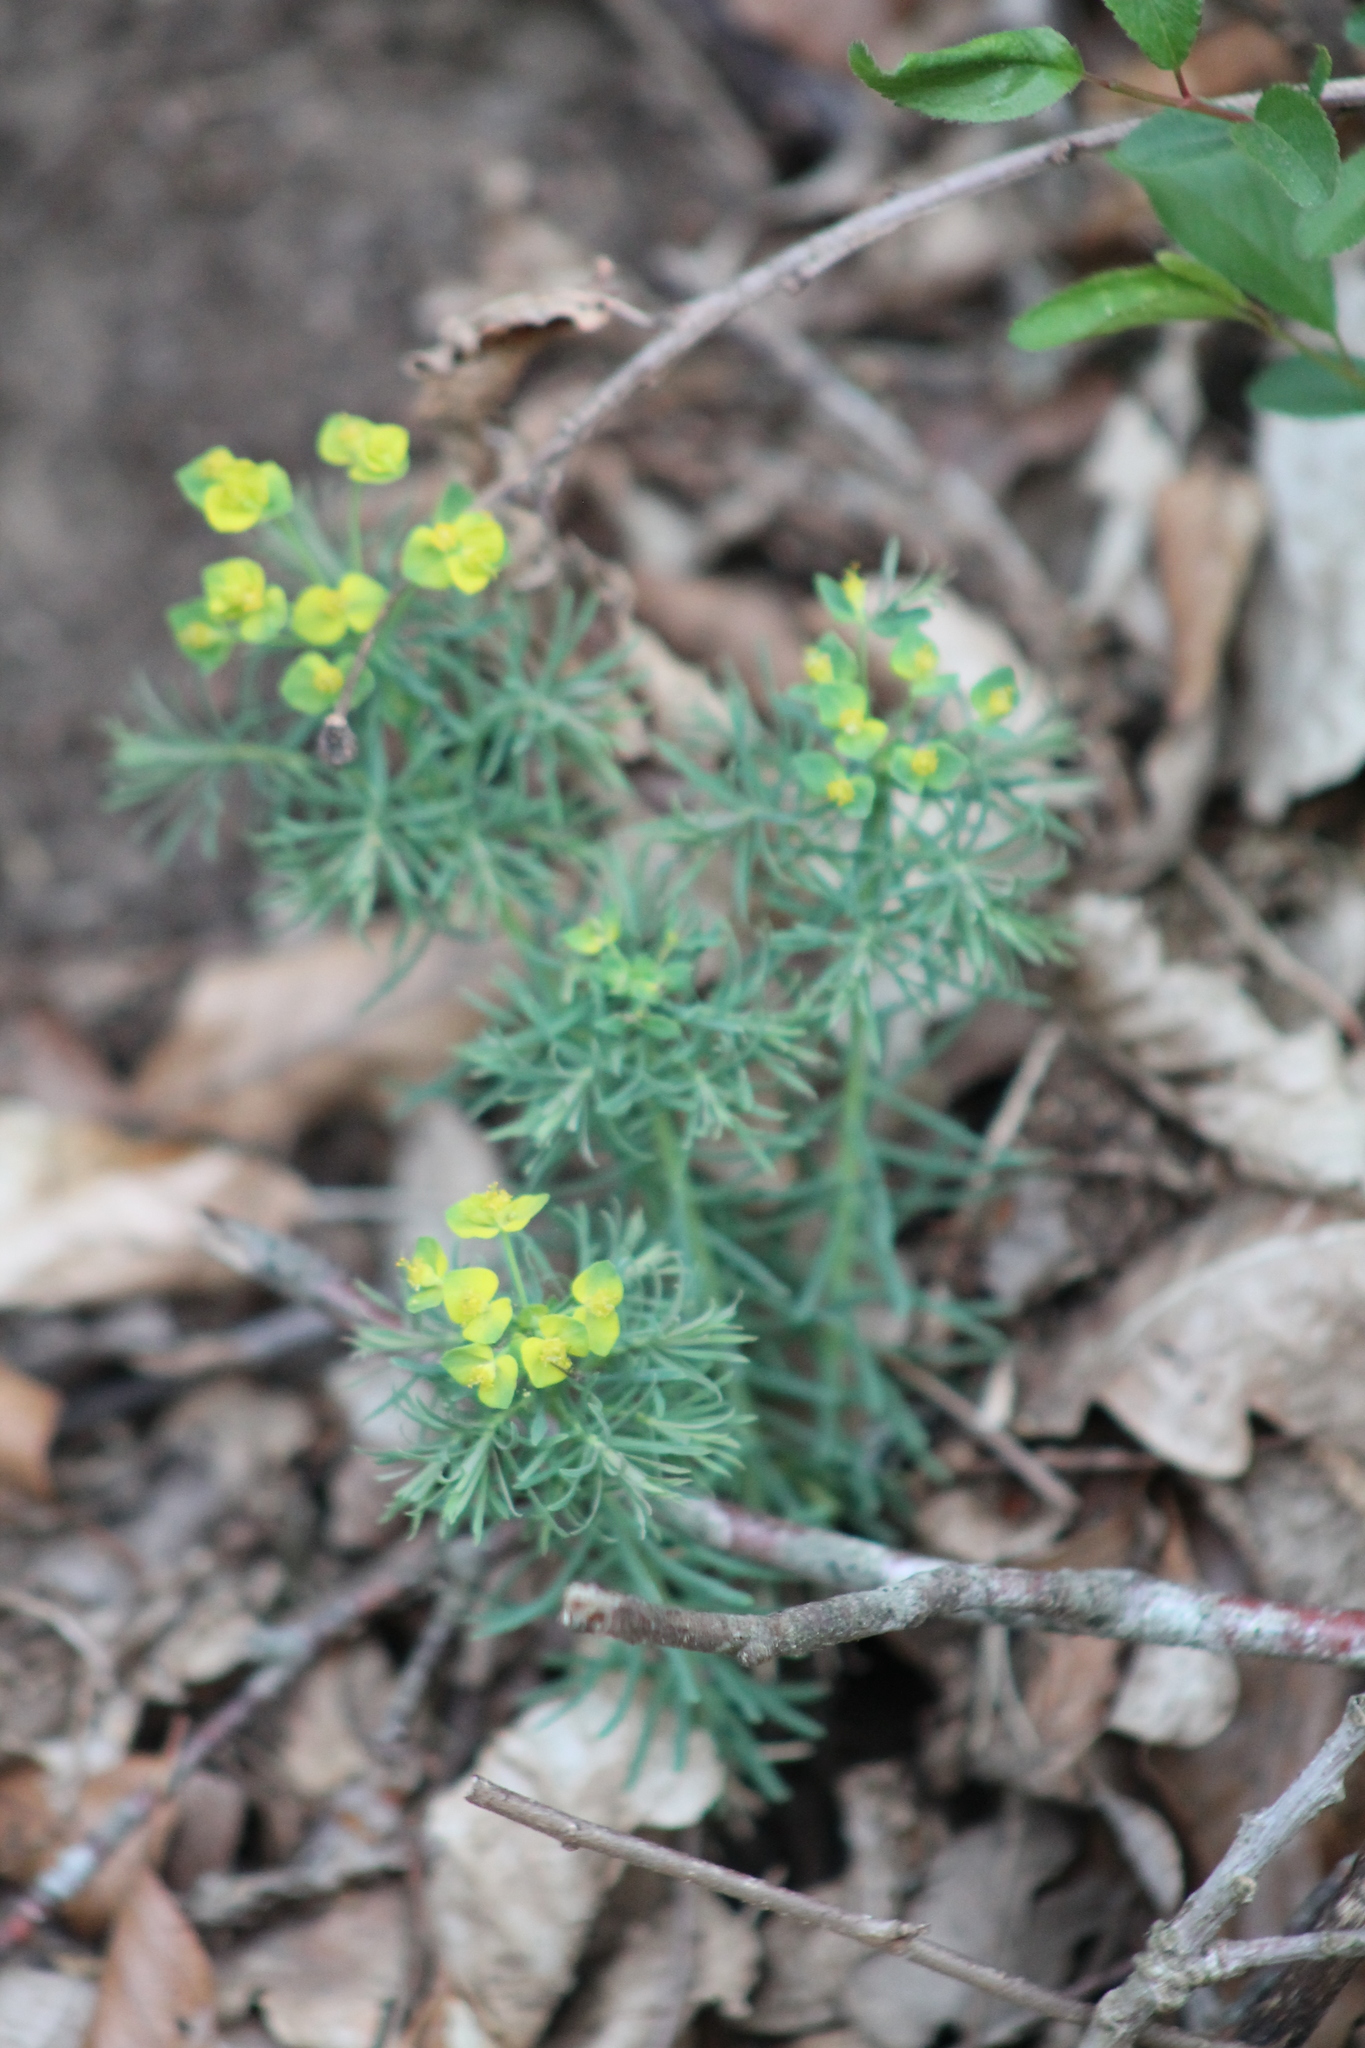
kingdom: Plantae
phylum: Tracheophyta
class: Magnoliopsida
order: Malpighiales
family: Euphorbiaceae
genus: Euphorbia
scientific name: Euphorbia cyparissias
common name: Cypress spurge
